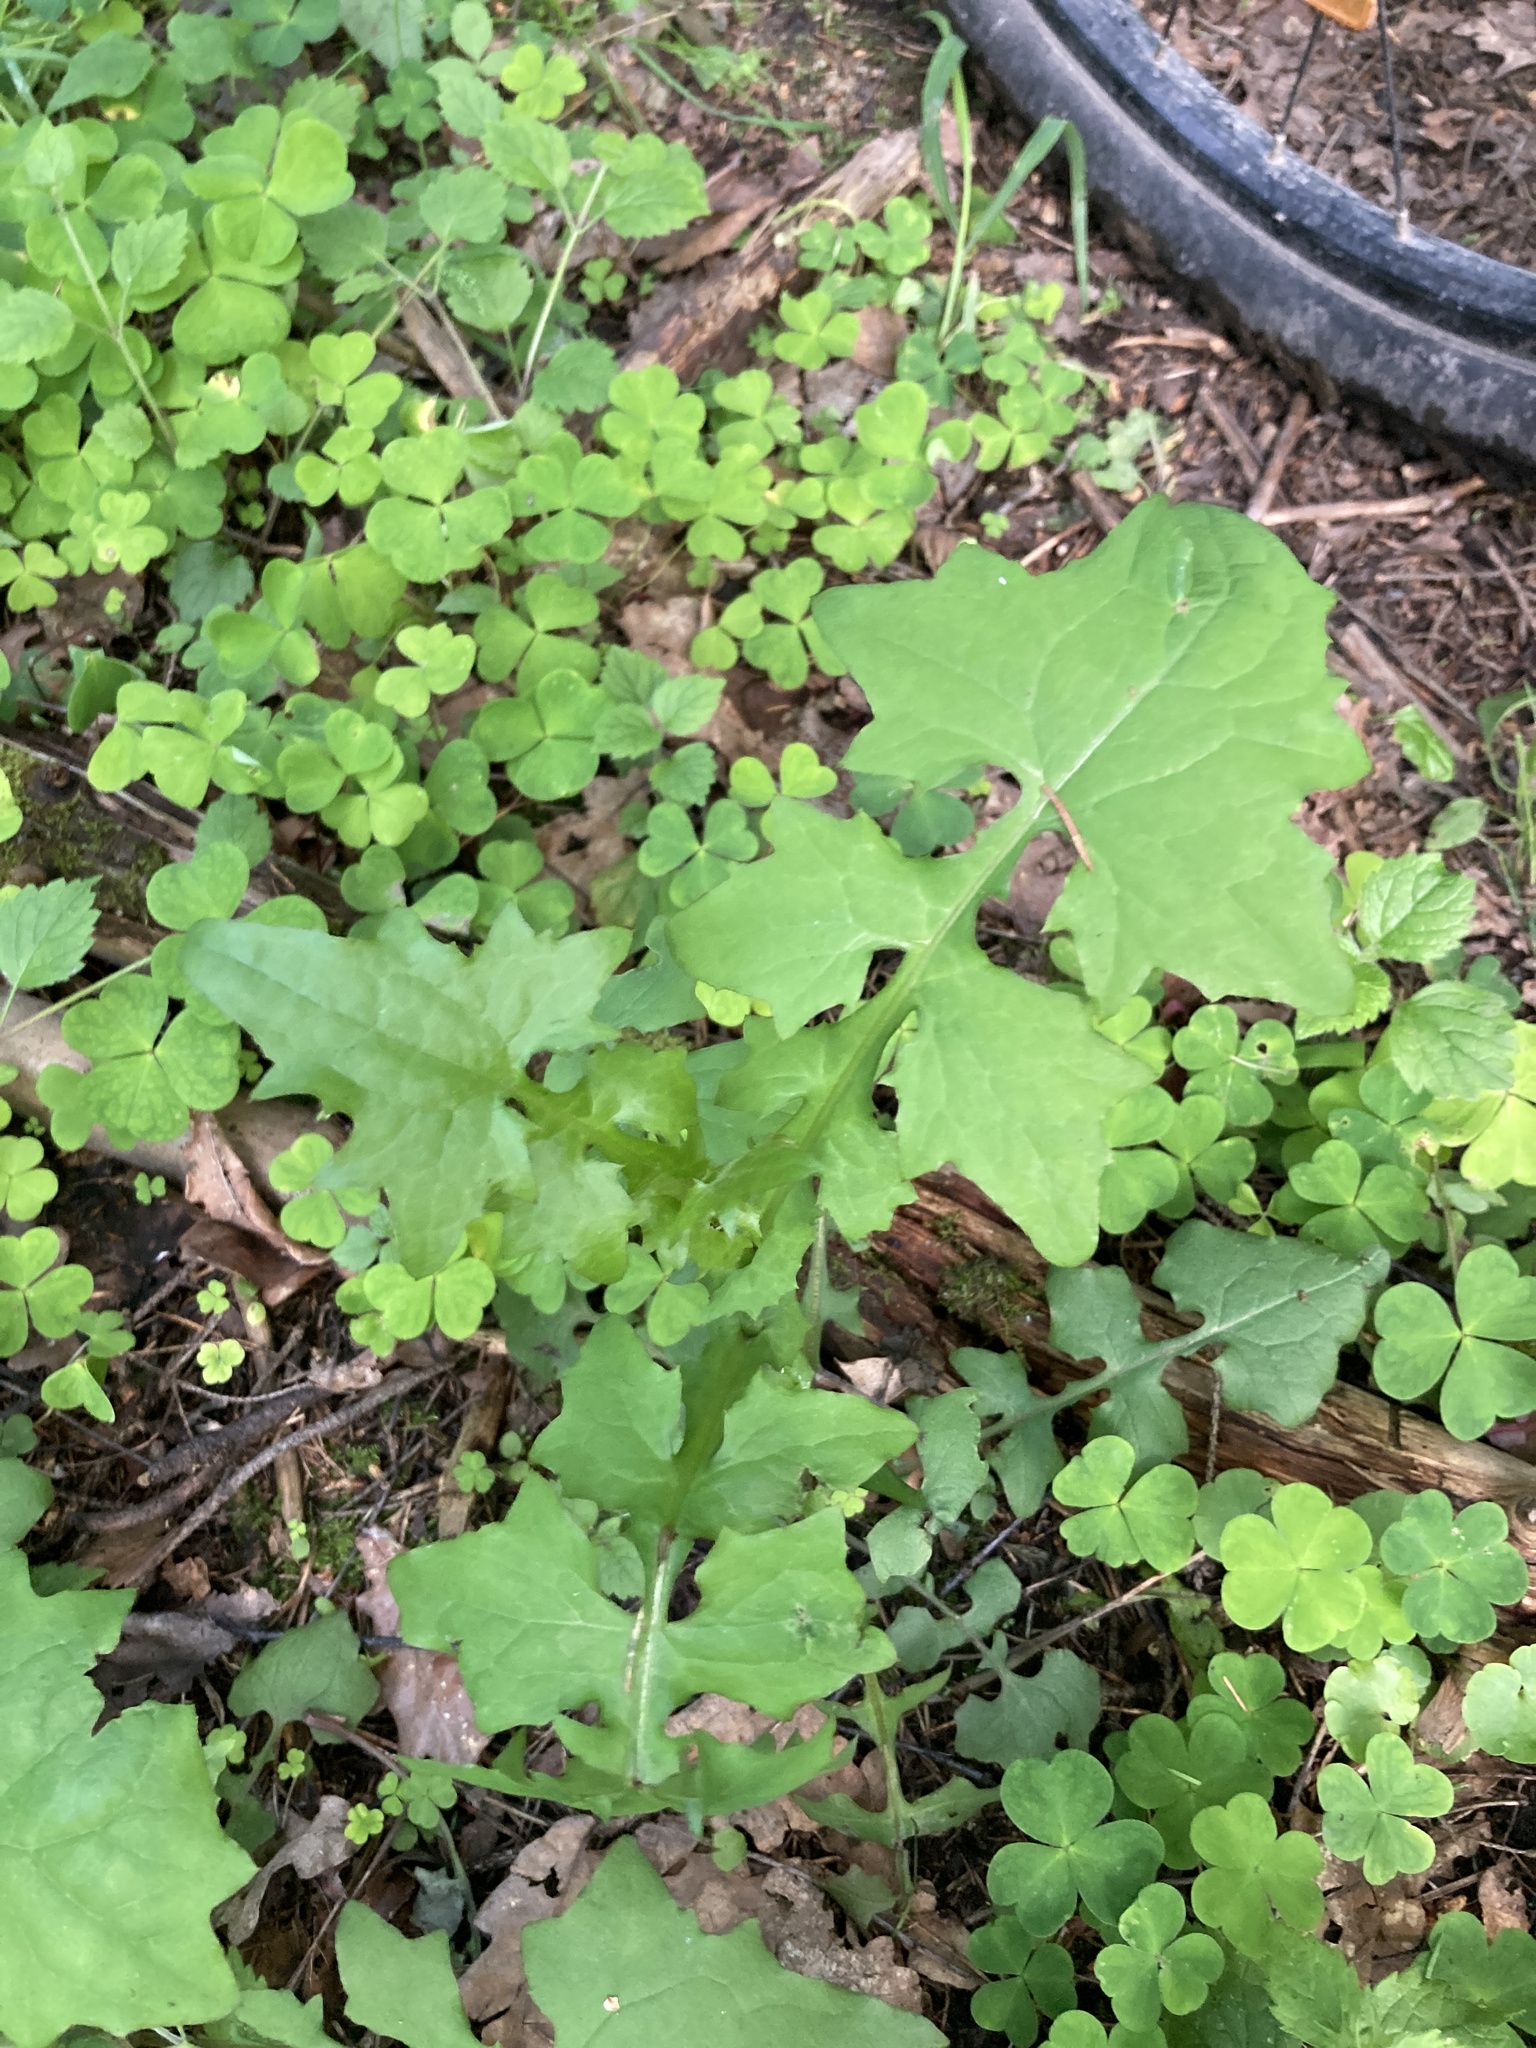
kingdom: Plantae
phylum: Tracheophyta
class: Magnoliopsida
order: Asterales
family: Asteraceae
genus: Mycelis
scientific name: Mycelis muralis
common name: Wall lettuce
